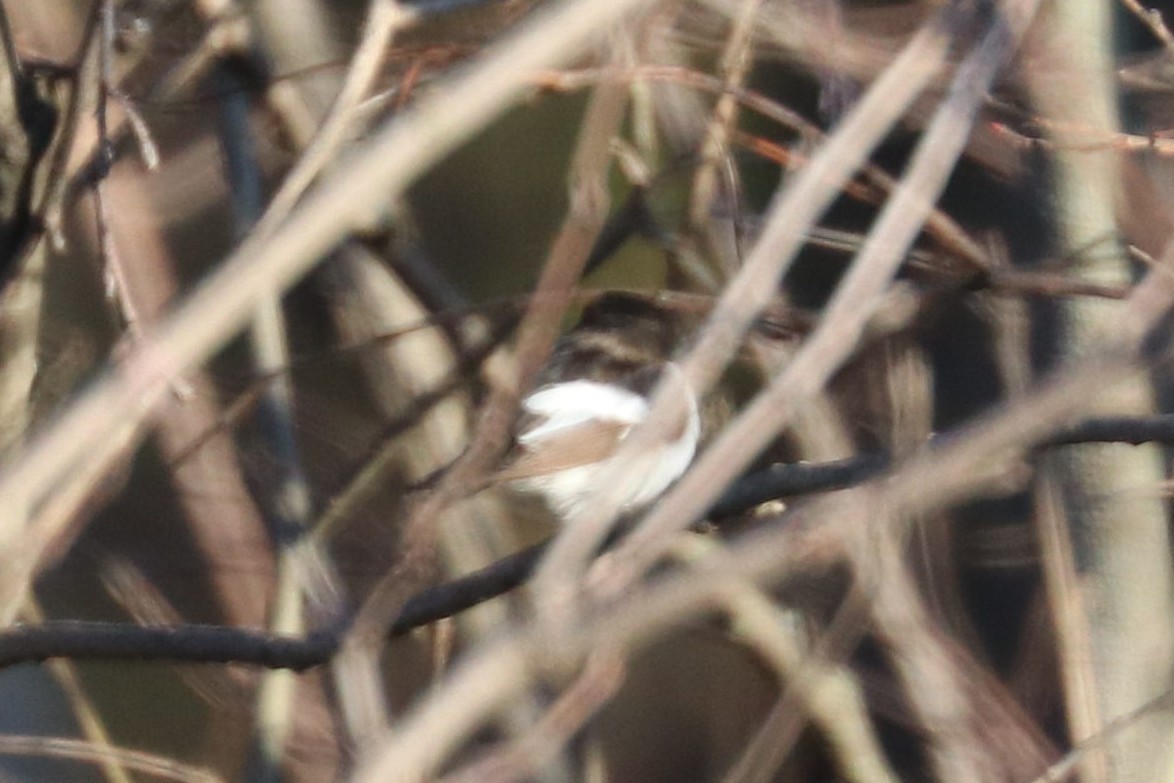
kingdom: Animalia
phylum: Chordata
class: Aves
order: Passeriformes
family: Muscicapidae
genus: Ficedula
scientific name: Ficedula hypoleuca
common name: European pied flycatcher
